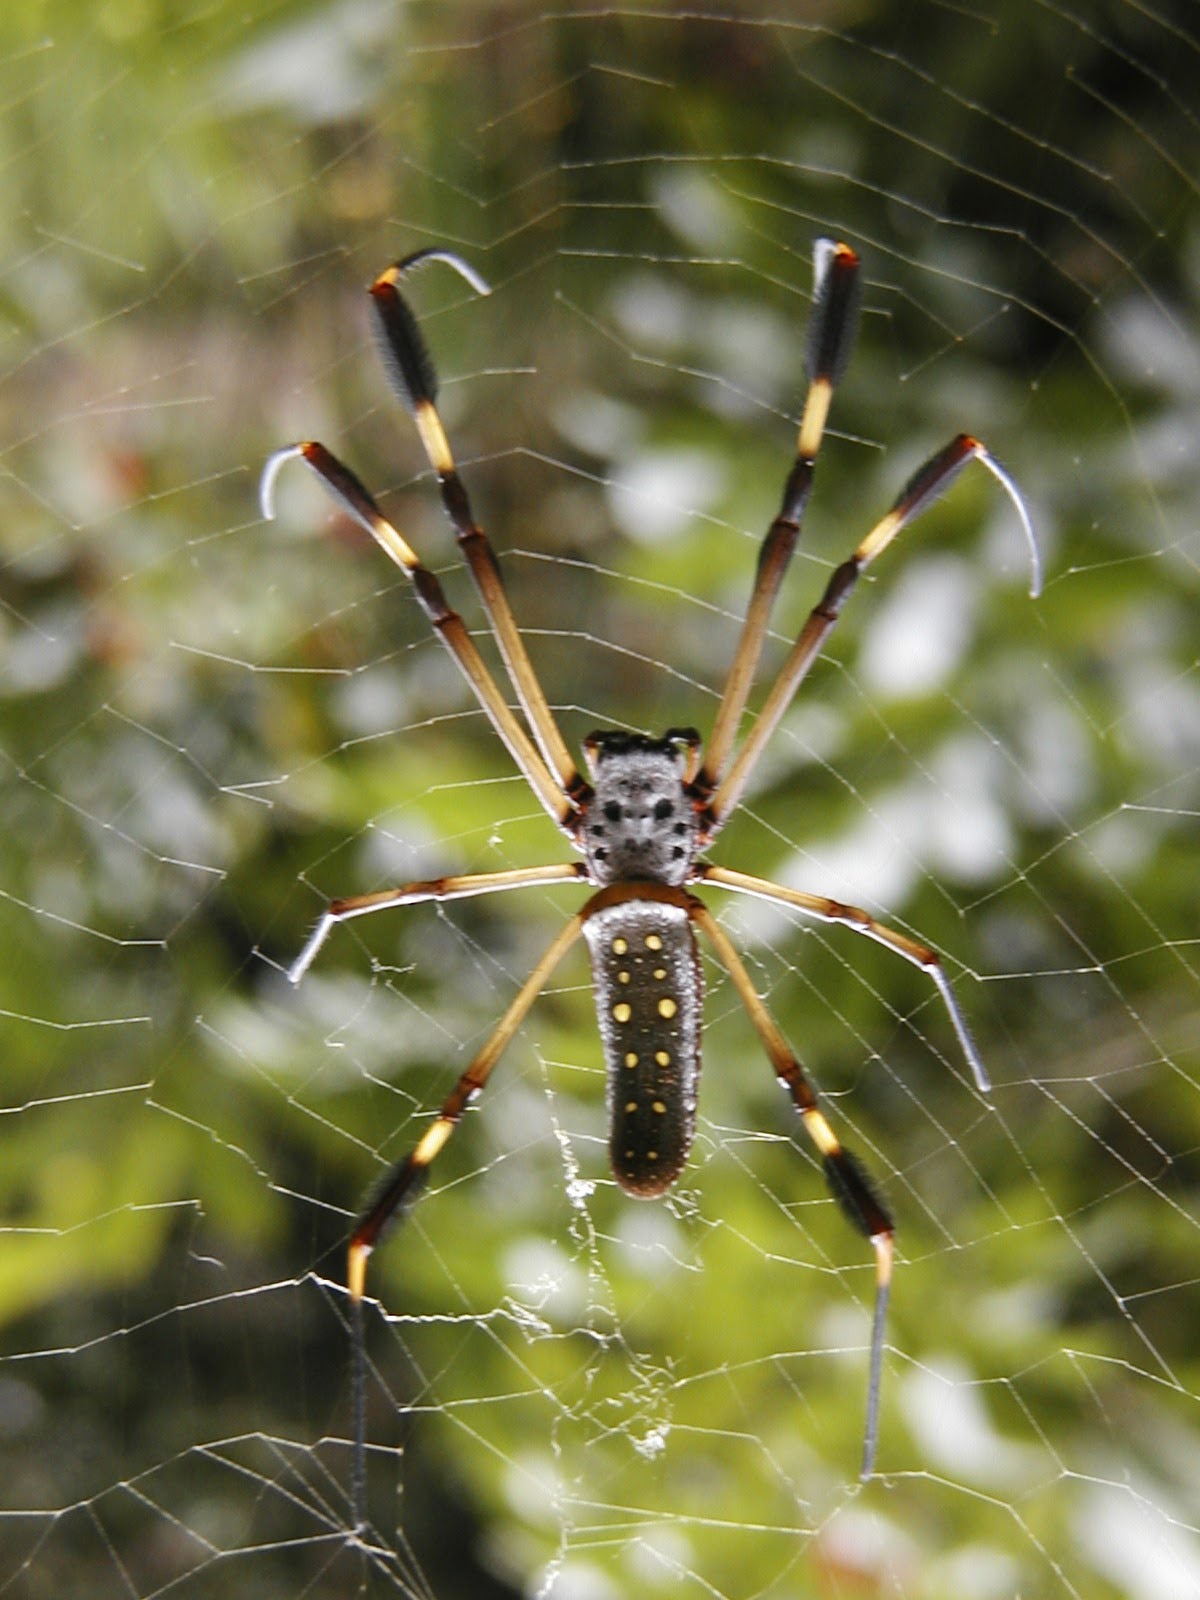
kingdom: Animalia
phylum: Arthropoda
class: Arachnida
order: Araneae
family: Araneidae
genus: Trichonephila
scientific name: Trichonephila clavipes
